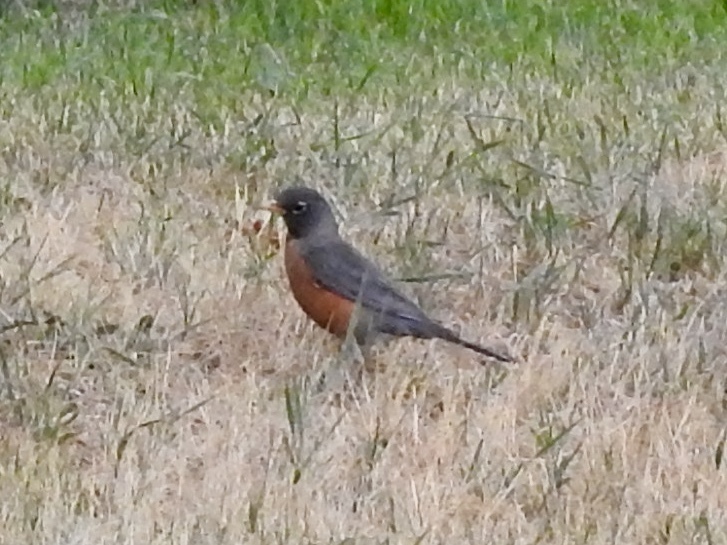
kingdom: Animalia
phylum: Chordata
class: Aves
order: Passeriformes
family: Turdidae
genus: Turdus
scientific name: Turdus migratorius
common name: American robin
